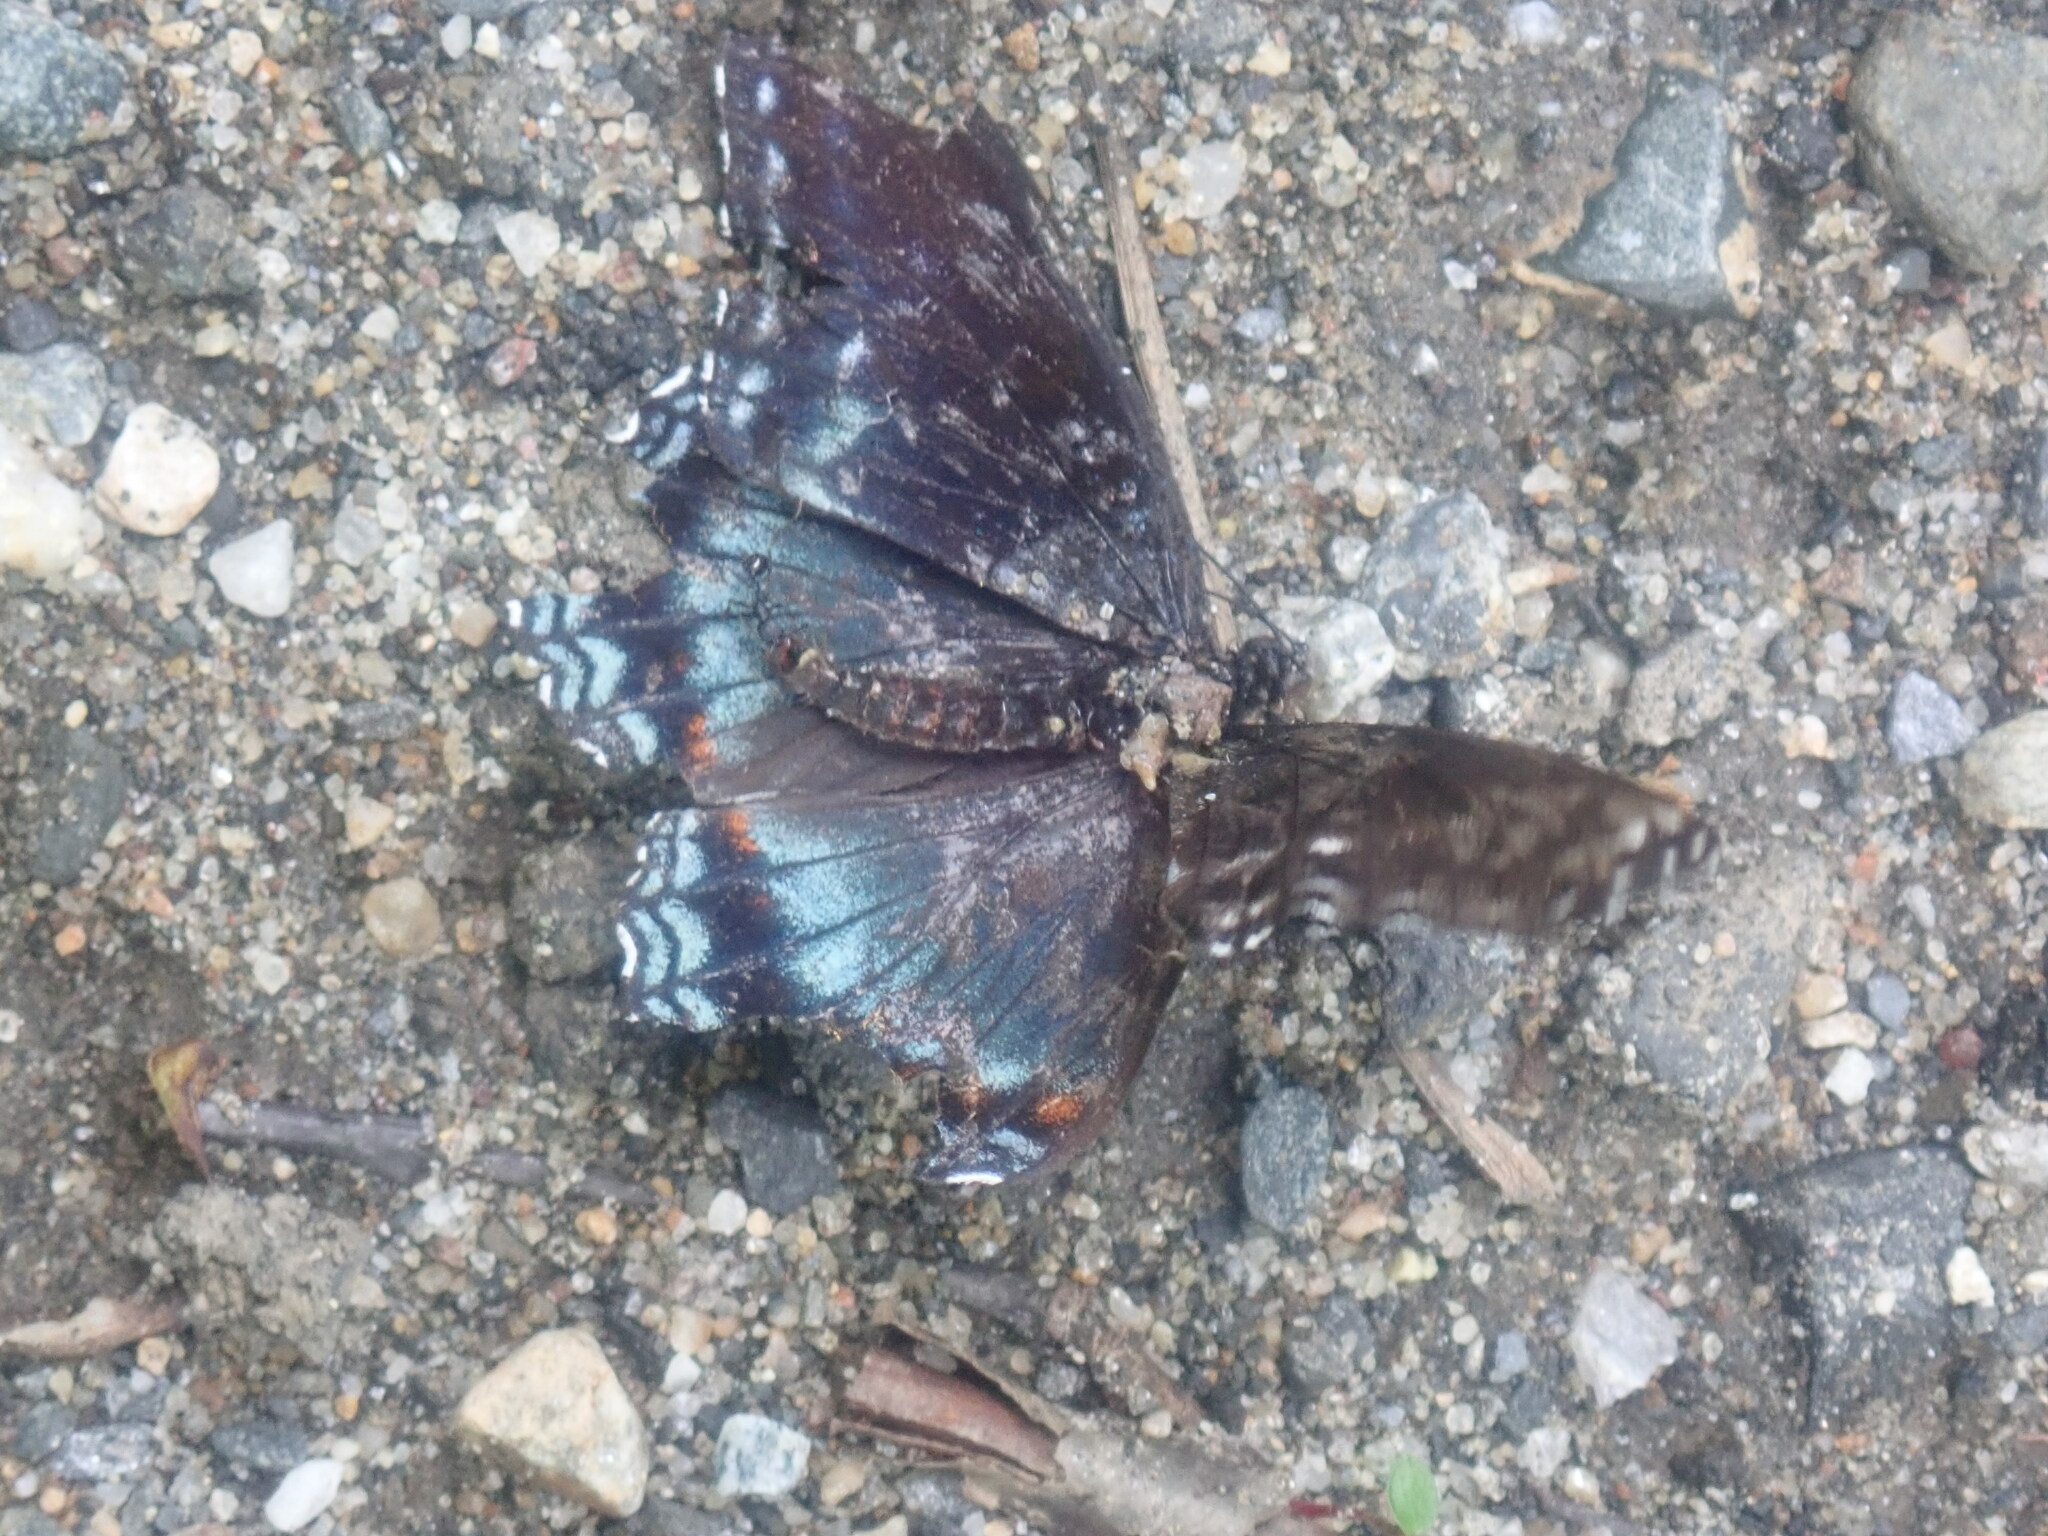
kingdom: Animalia
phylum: Arthropoda
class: Insecta
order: Lepidoptera
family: Nymphalidae
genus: Limenitis
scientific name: Limenitis arthemis
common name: Red-spotted admiral
